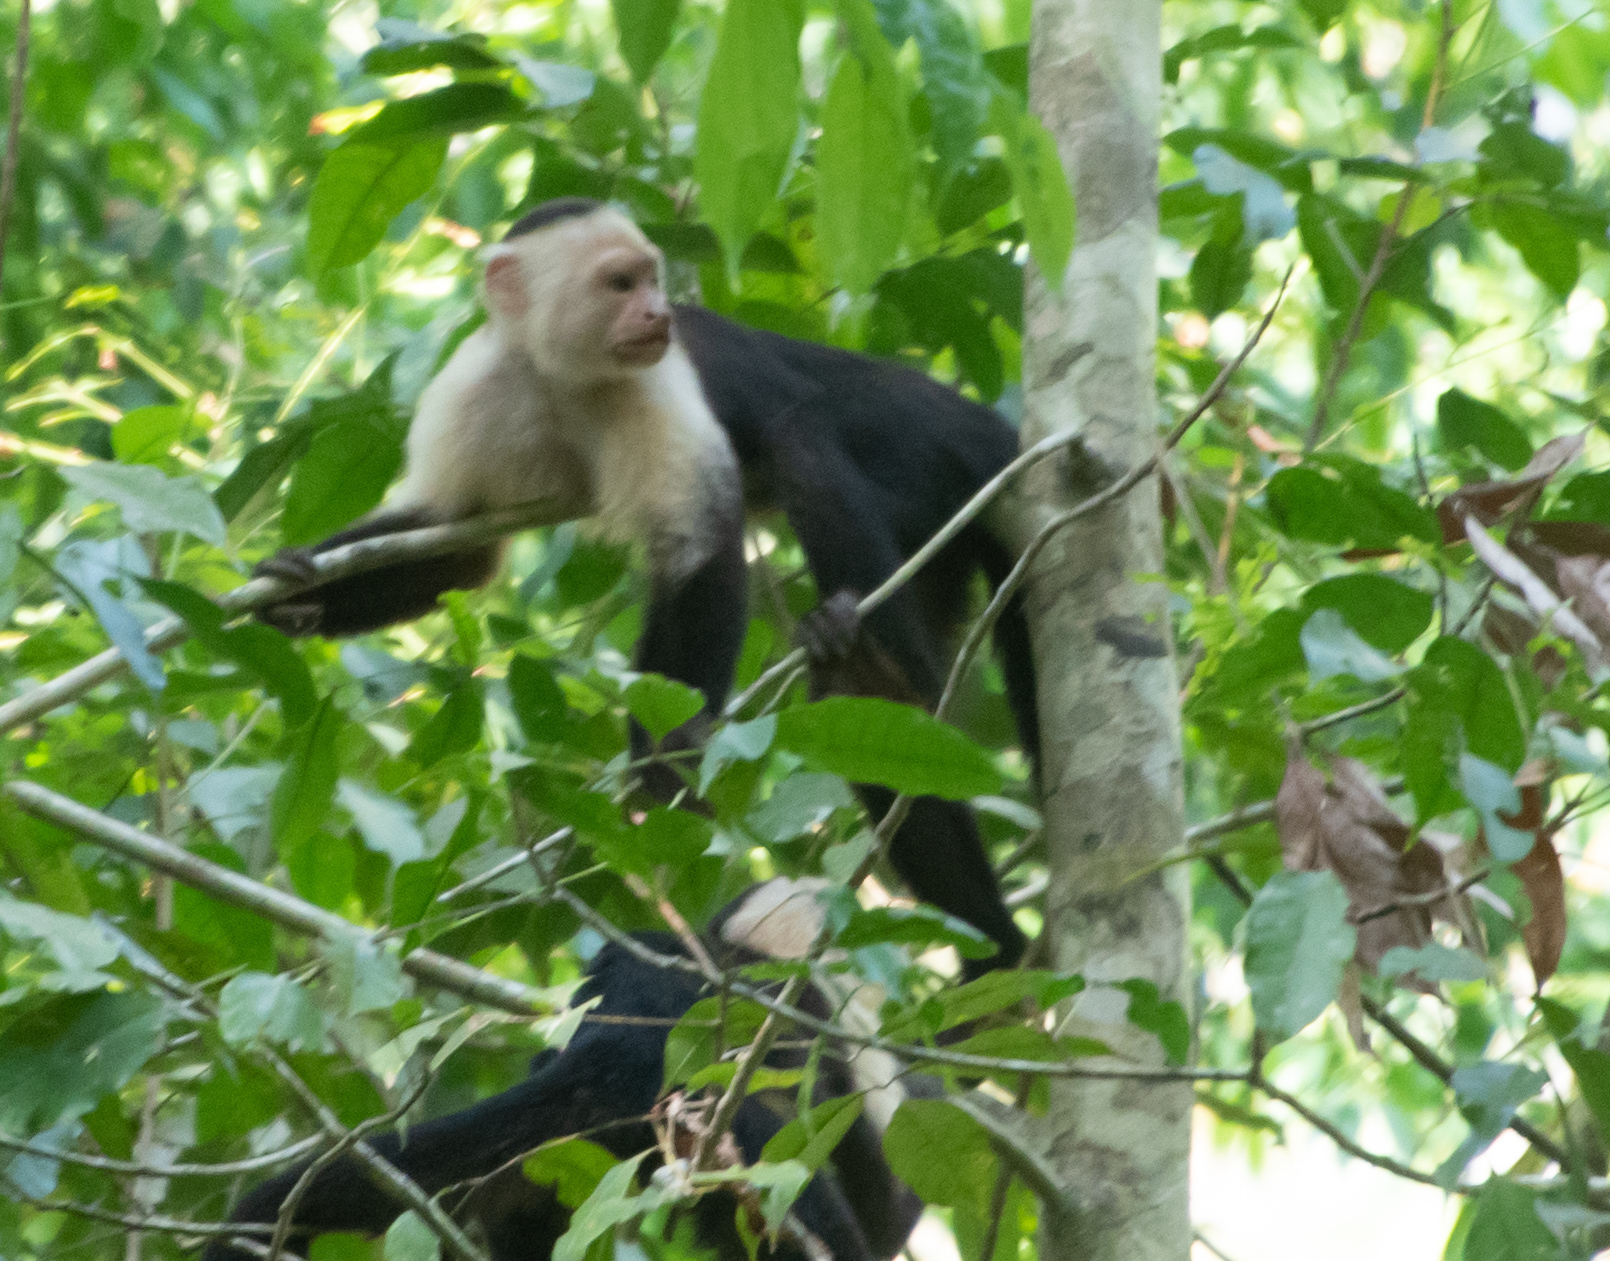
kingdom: Animalia
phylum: Chordata
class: Mammalia
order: Primates
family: Cebidae
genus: Cebus
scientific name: Cebus imitator
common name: Panamanian white-faced capuchin
